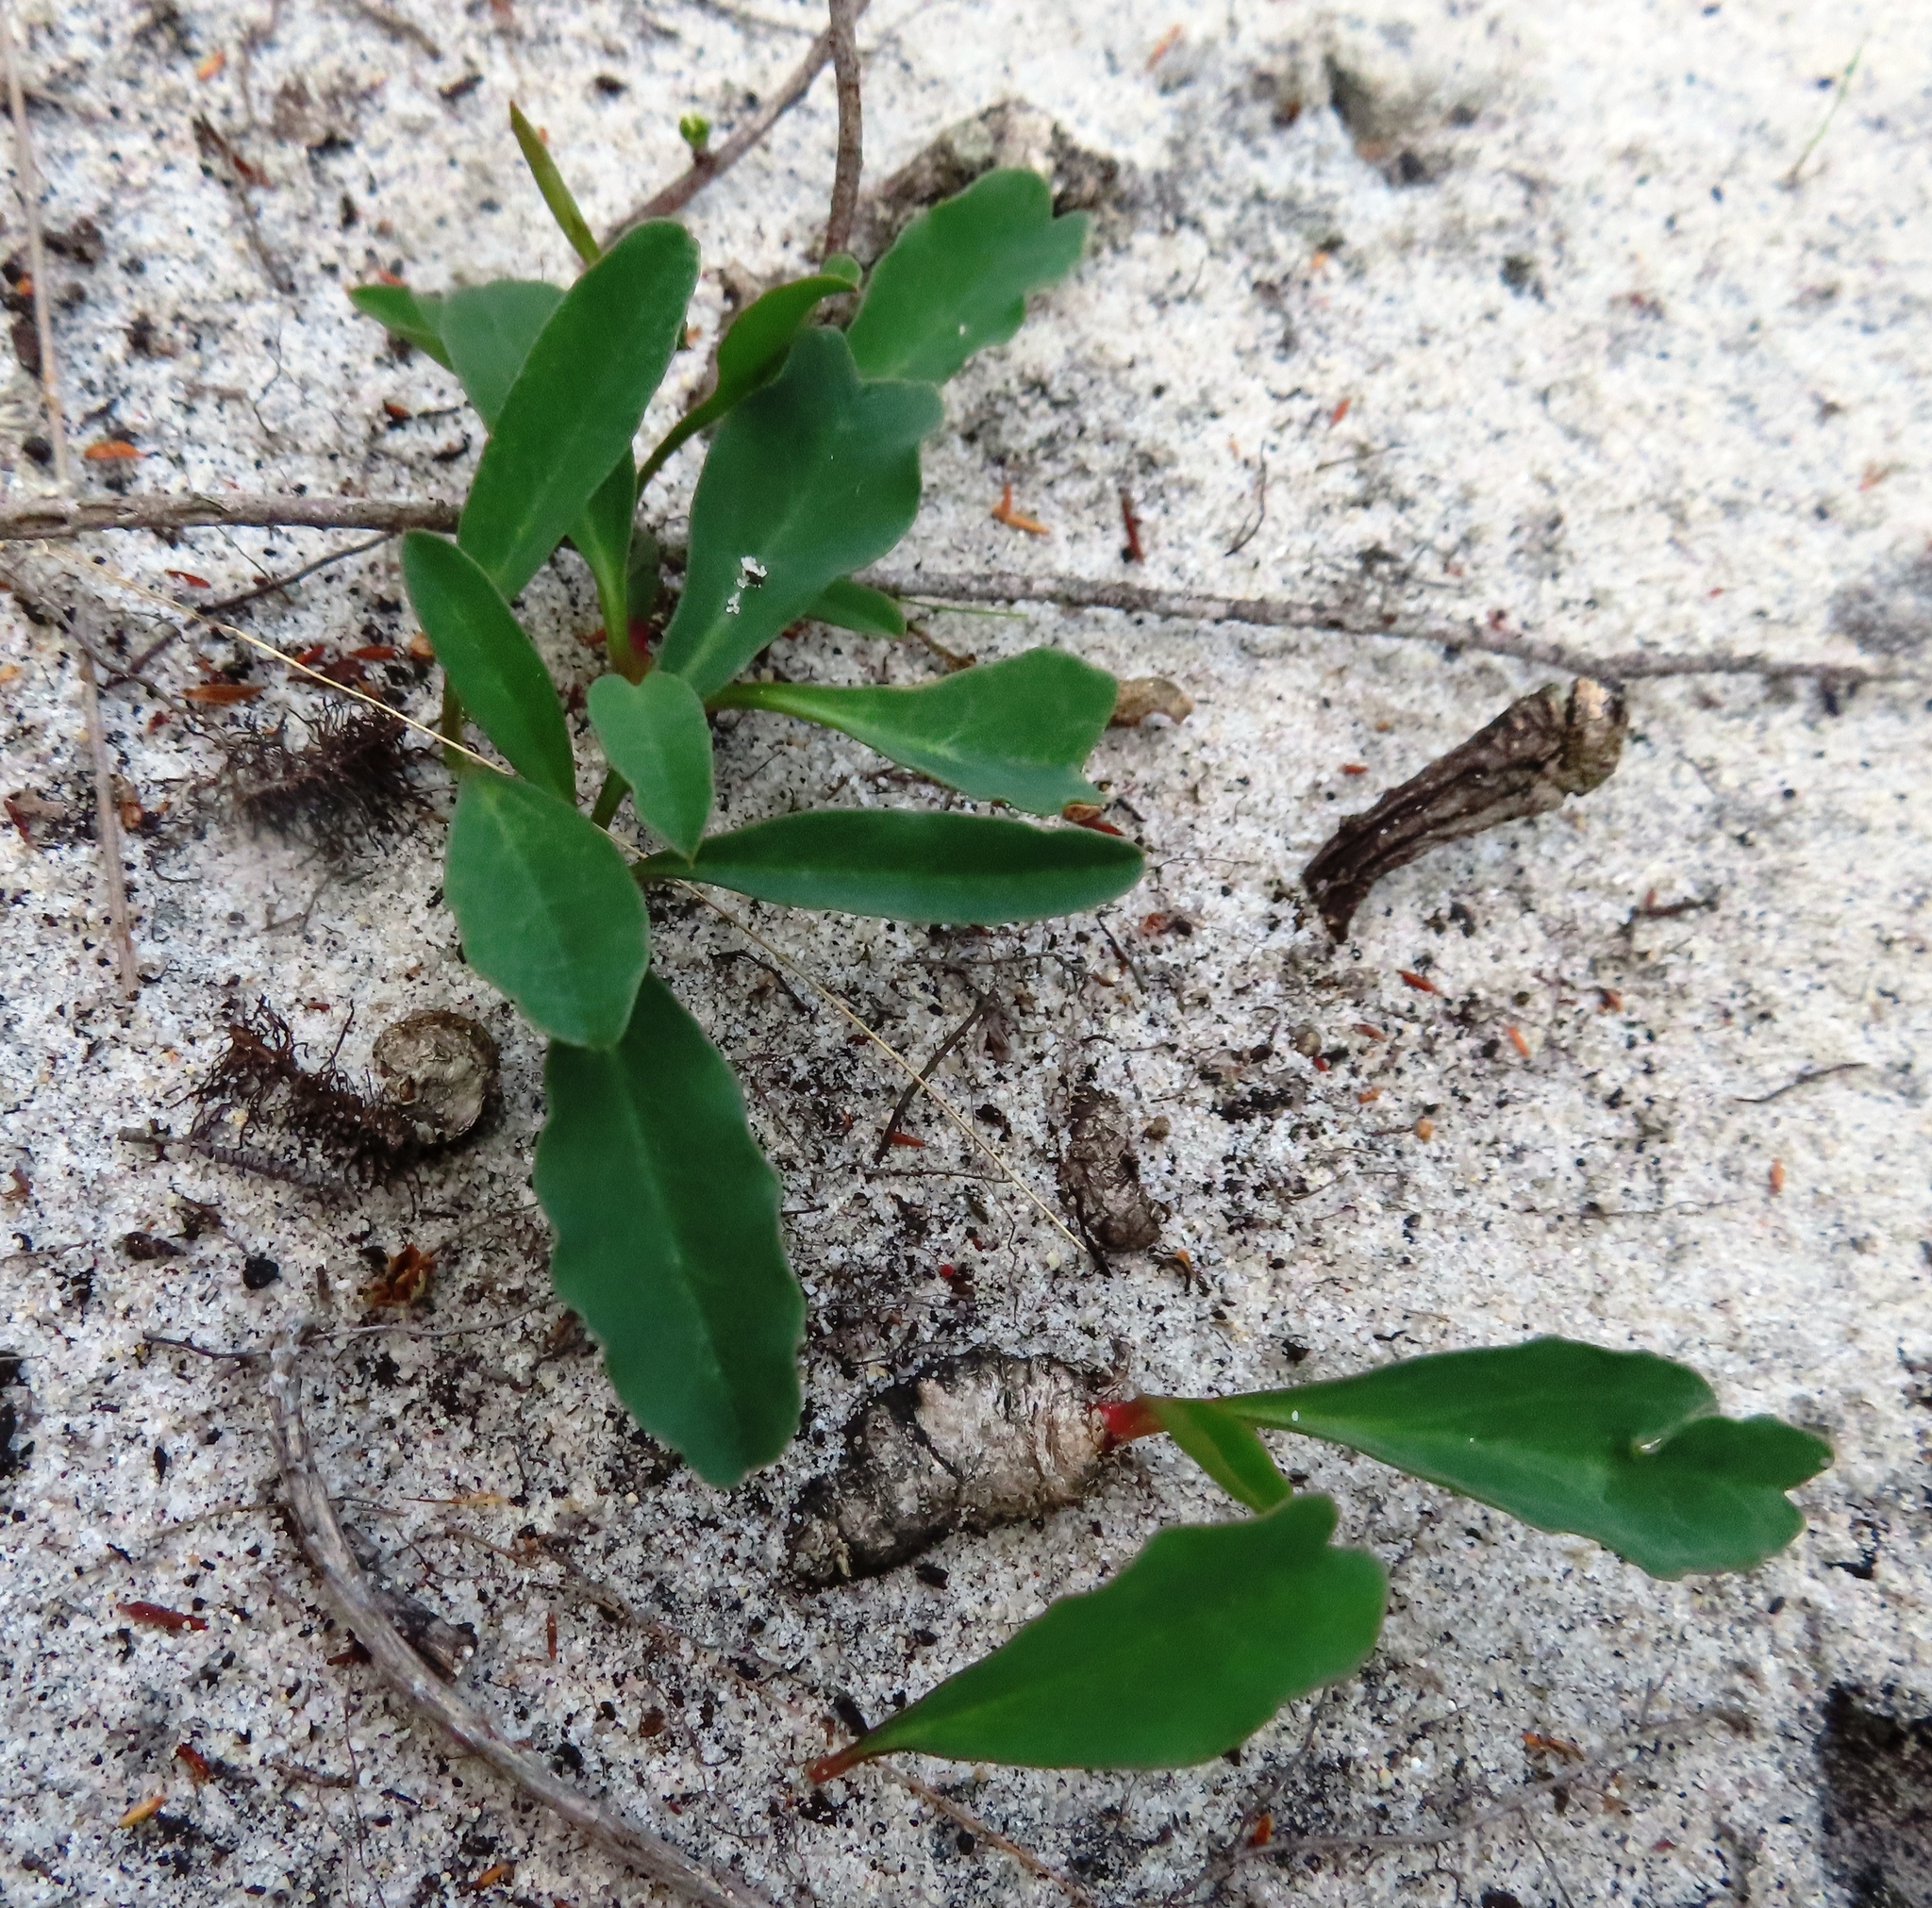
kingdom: Plantae
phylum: Tracheophyta
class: Magnoliopsida
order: Malpighiales
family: Euphorbiaceae
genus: Euphorbia
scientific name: Euphorbia tuberosa
